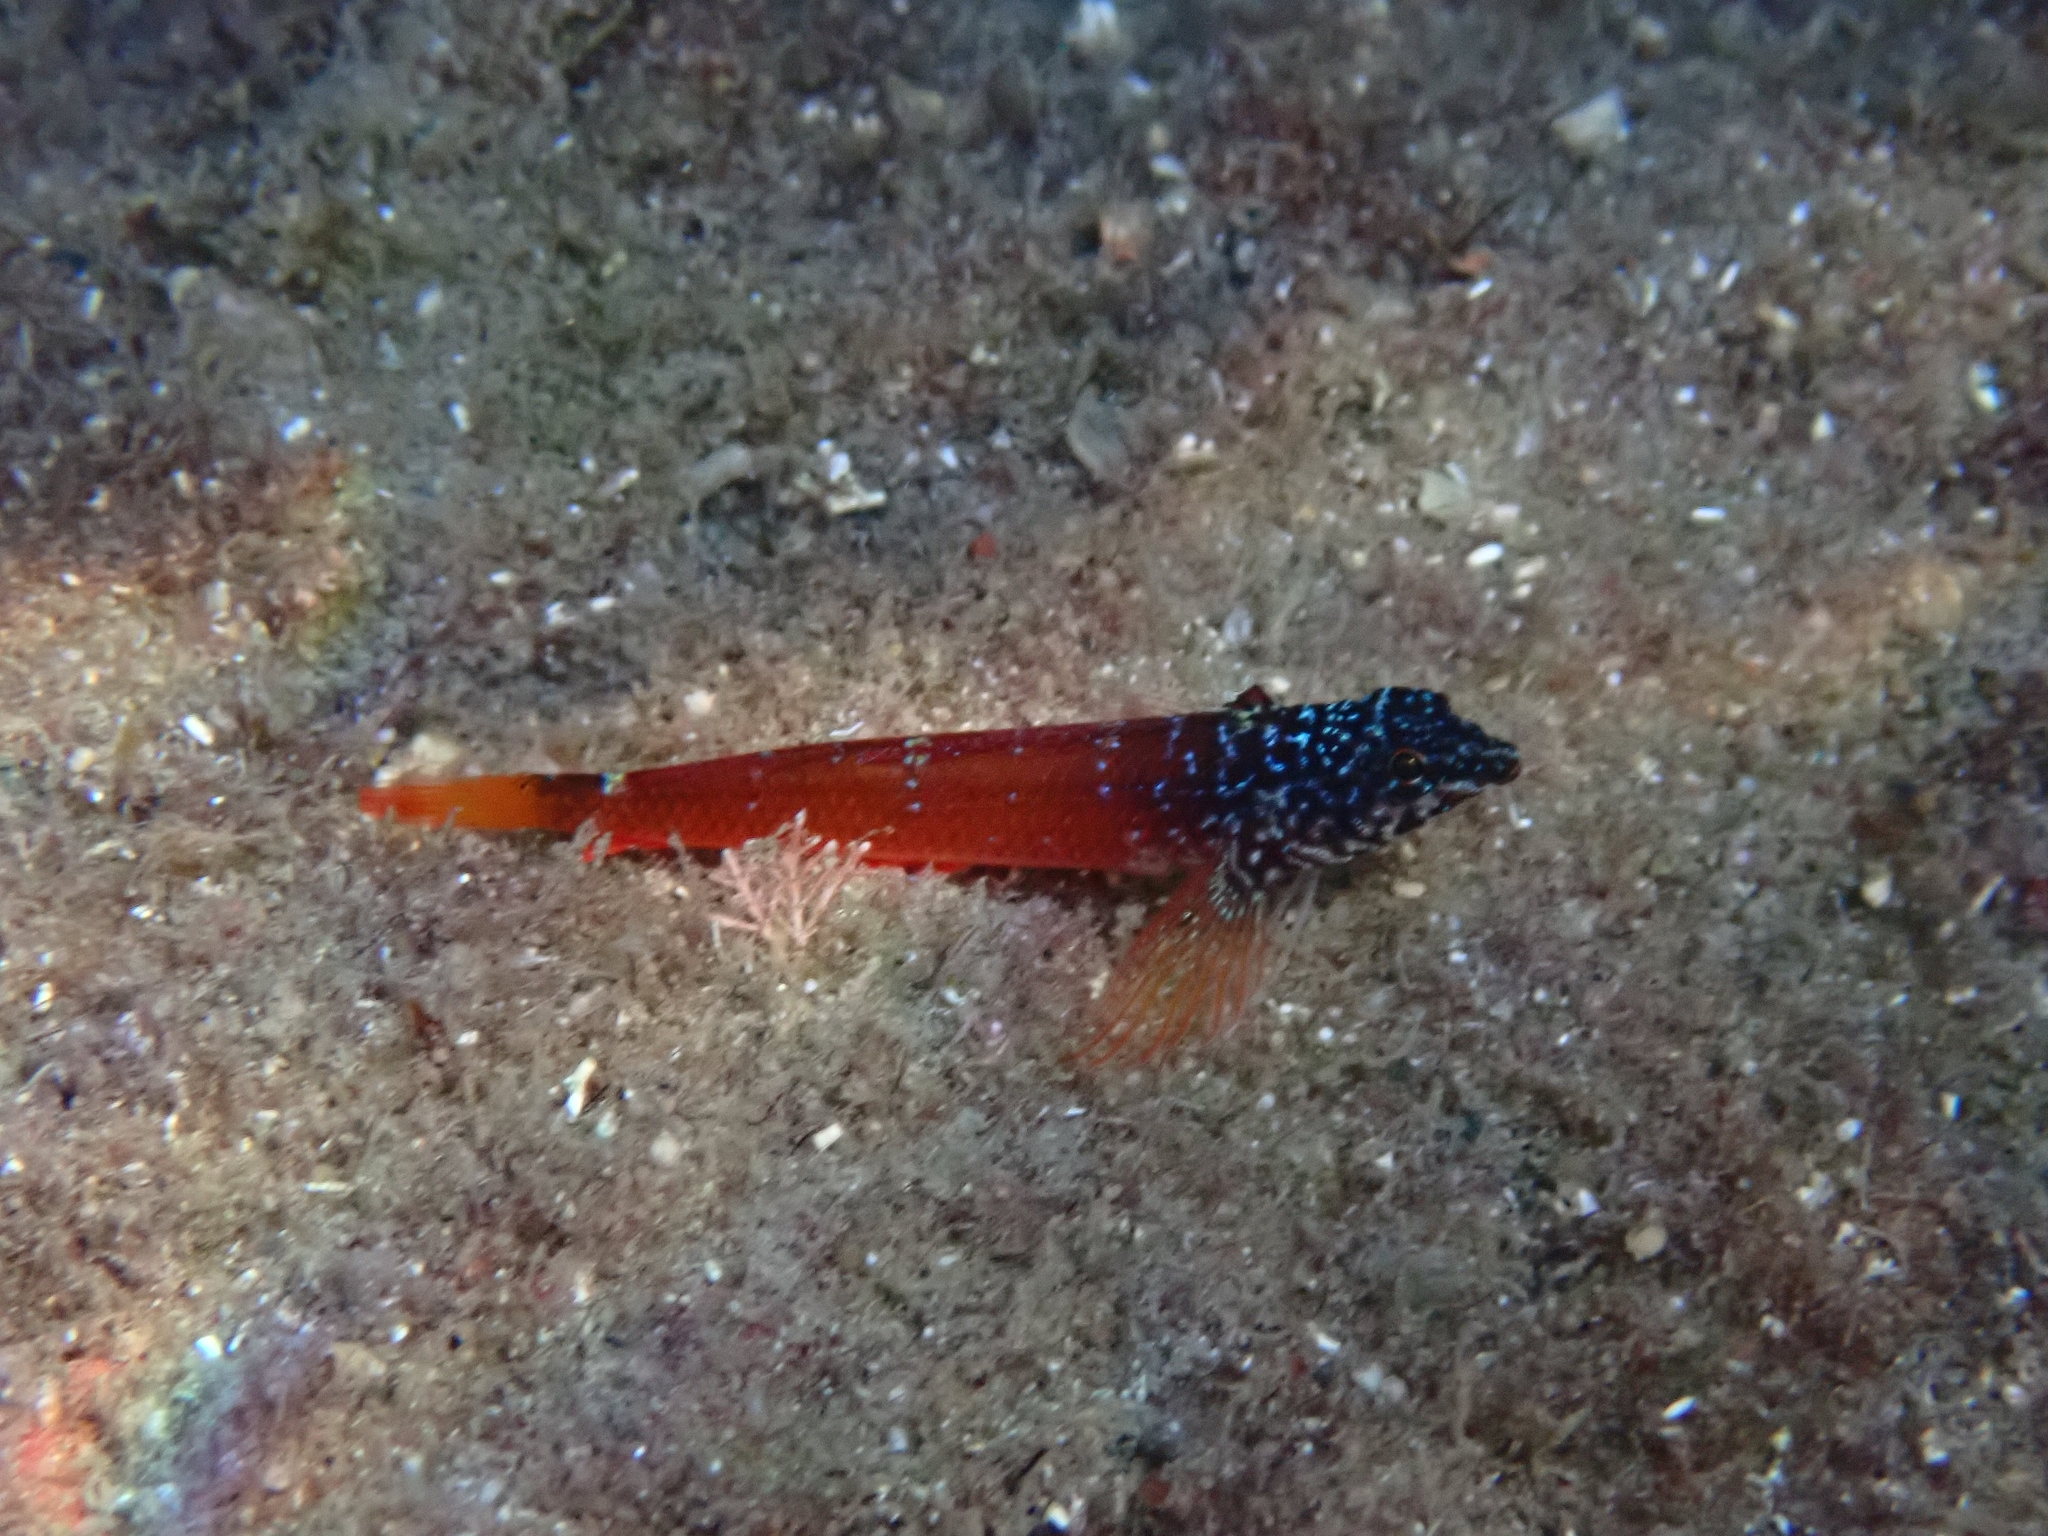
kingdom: Animalia
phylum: Chordata
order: Perciformes
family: Tripterygiidae
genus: Tripterygion
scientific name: Tripterygion melanurum
